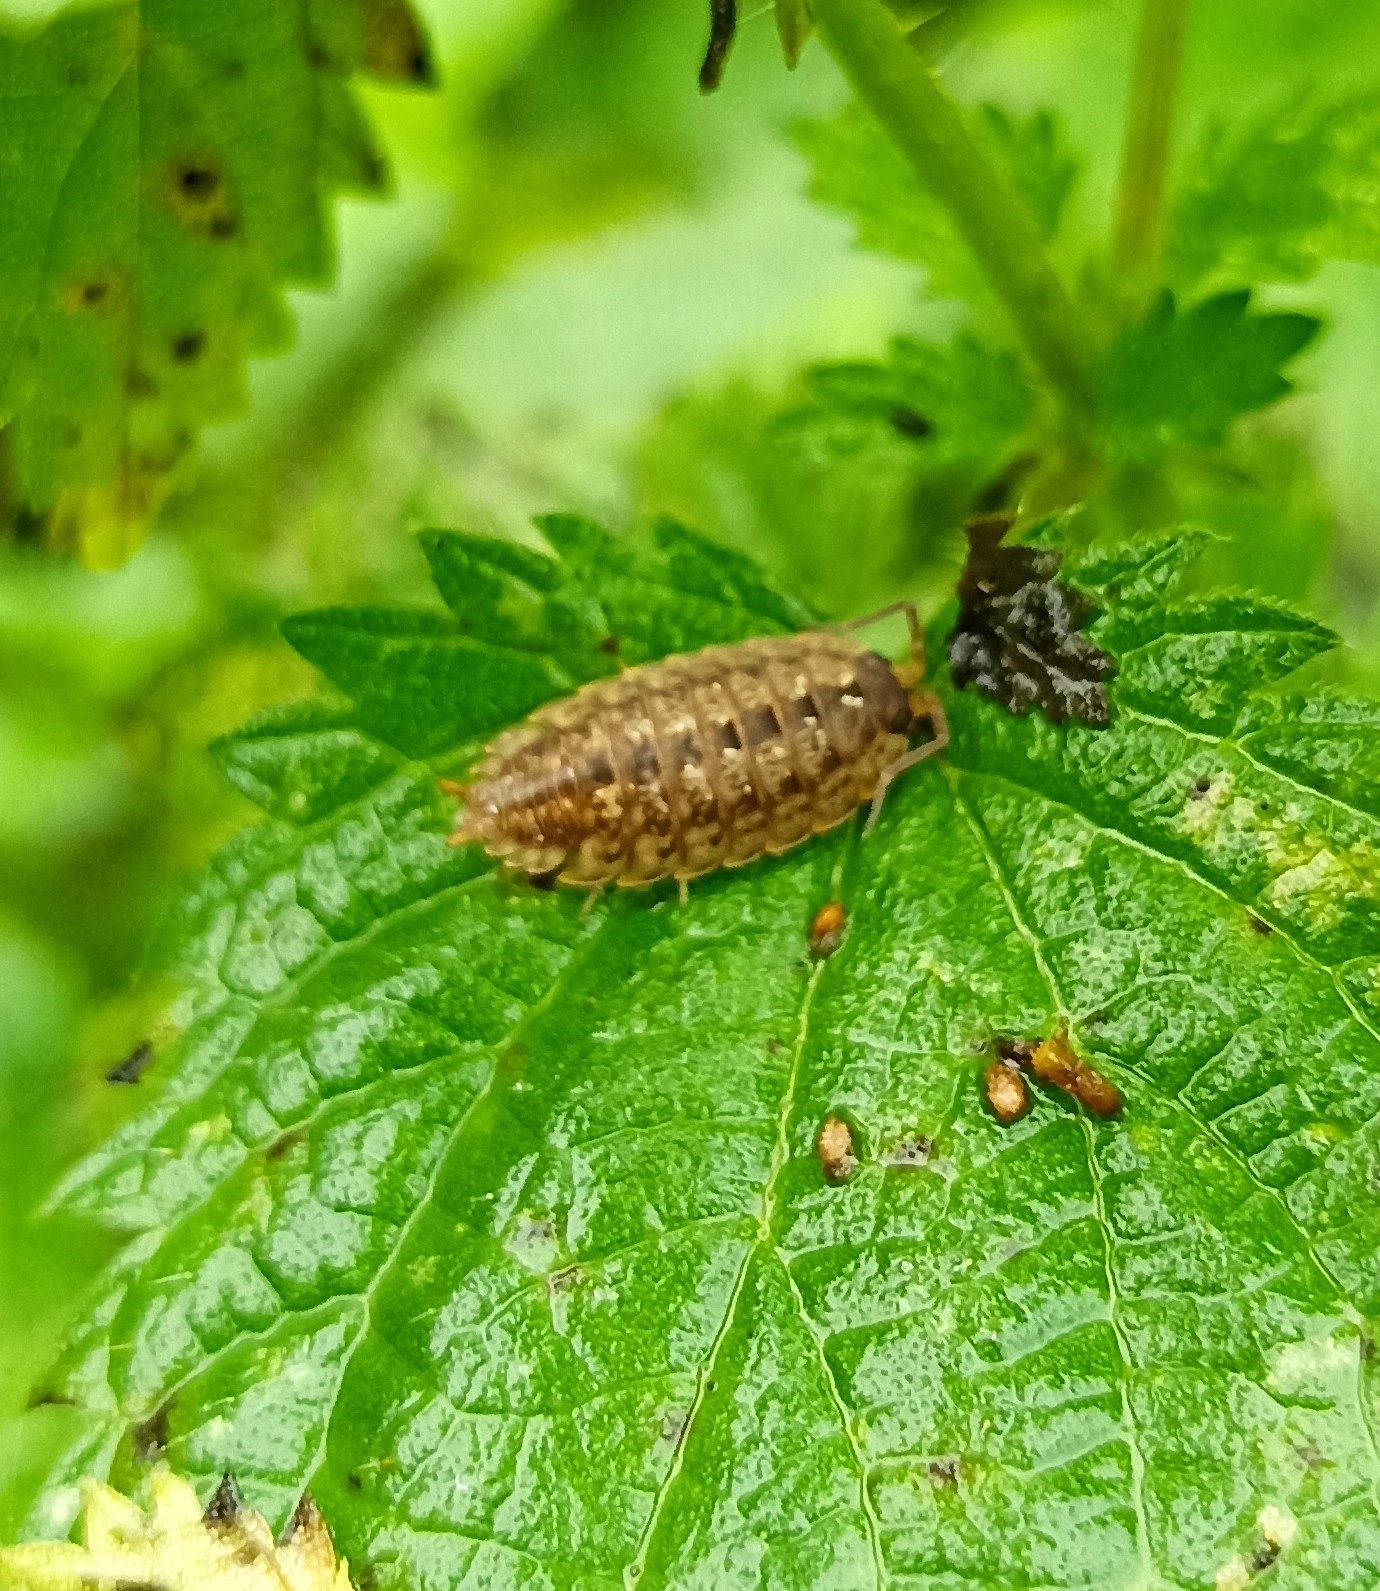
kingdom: Animalia
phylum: Arthropoda
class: Malacostraca
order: Isopoda
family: Porcellionidae
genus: Porcellio
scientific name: Porcellio monticola
